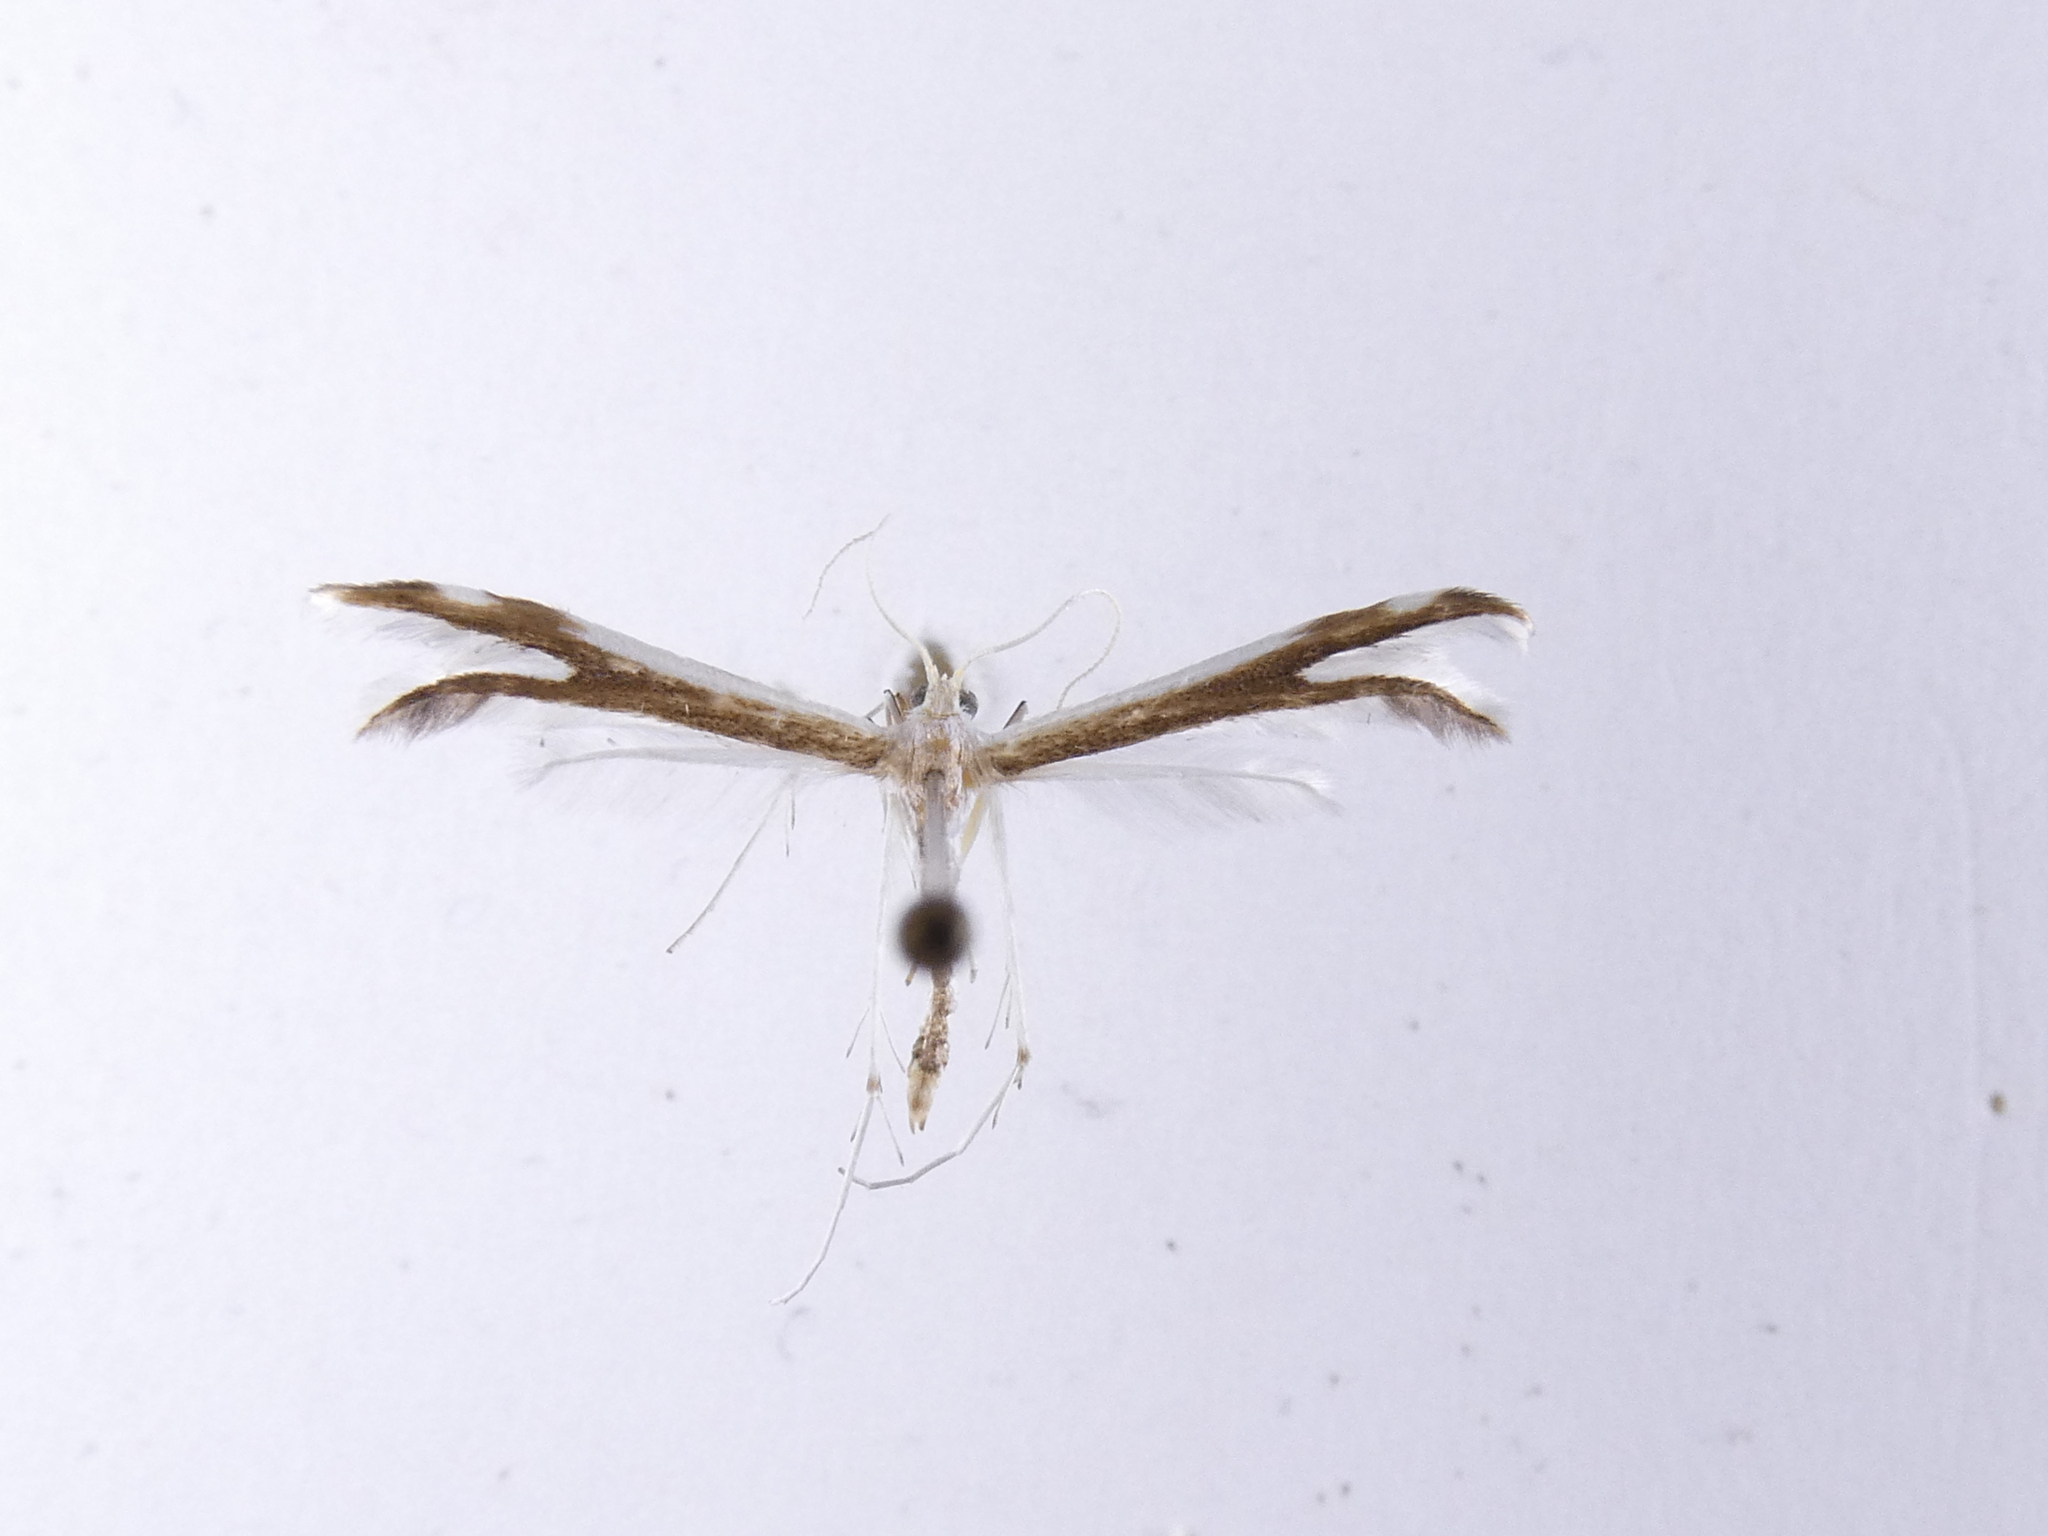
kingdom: Animalia
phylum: Arthropoda
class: Insecta
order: Lepidoptera
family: Pterophoridae
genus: Pterophorus
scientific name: Pterophorus furcatalis
